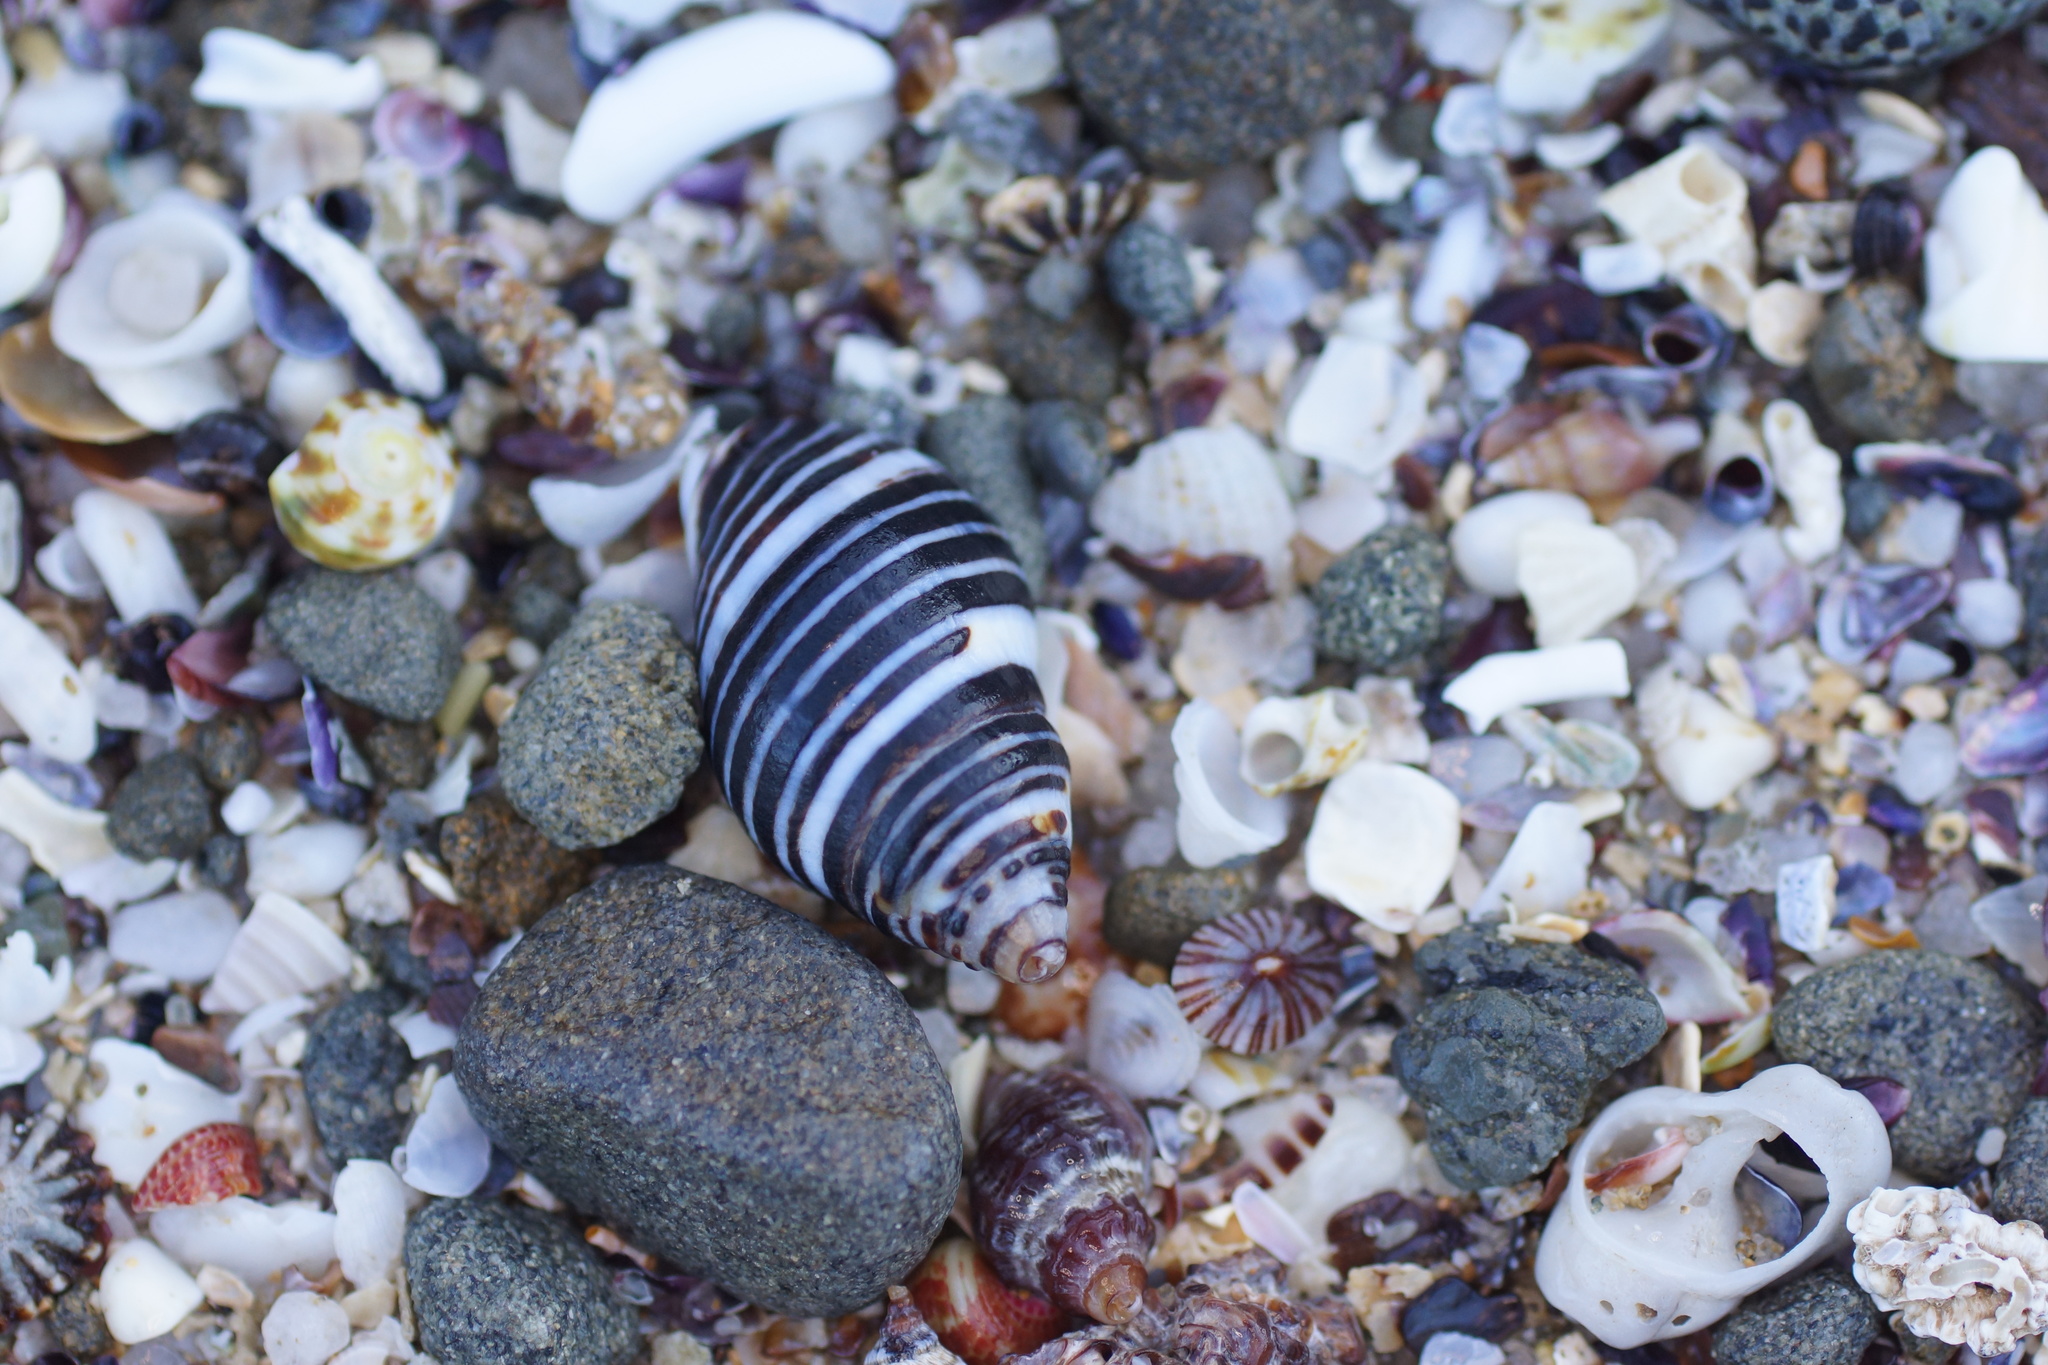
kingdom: Animalia
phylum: Mollusca
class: Gastropoda
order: Neogastropoda
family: Cominellidae
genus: Cominella
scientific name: Cominella lineolata
